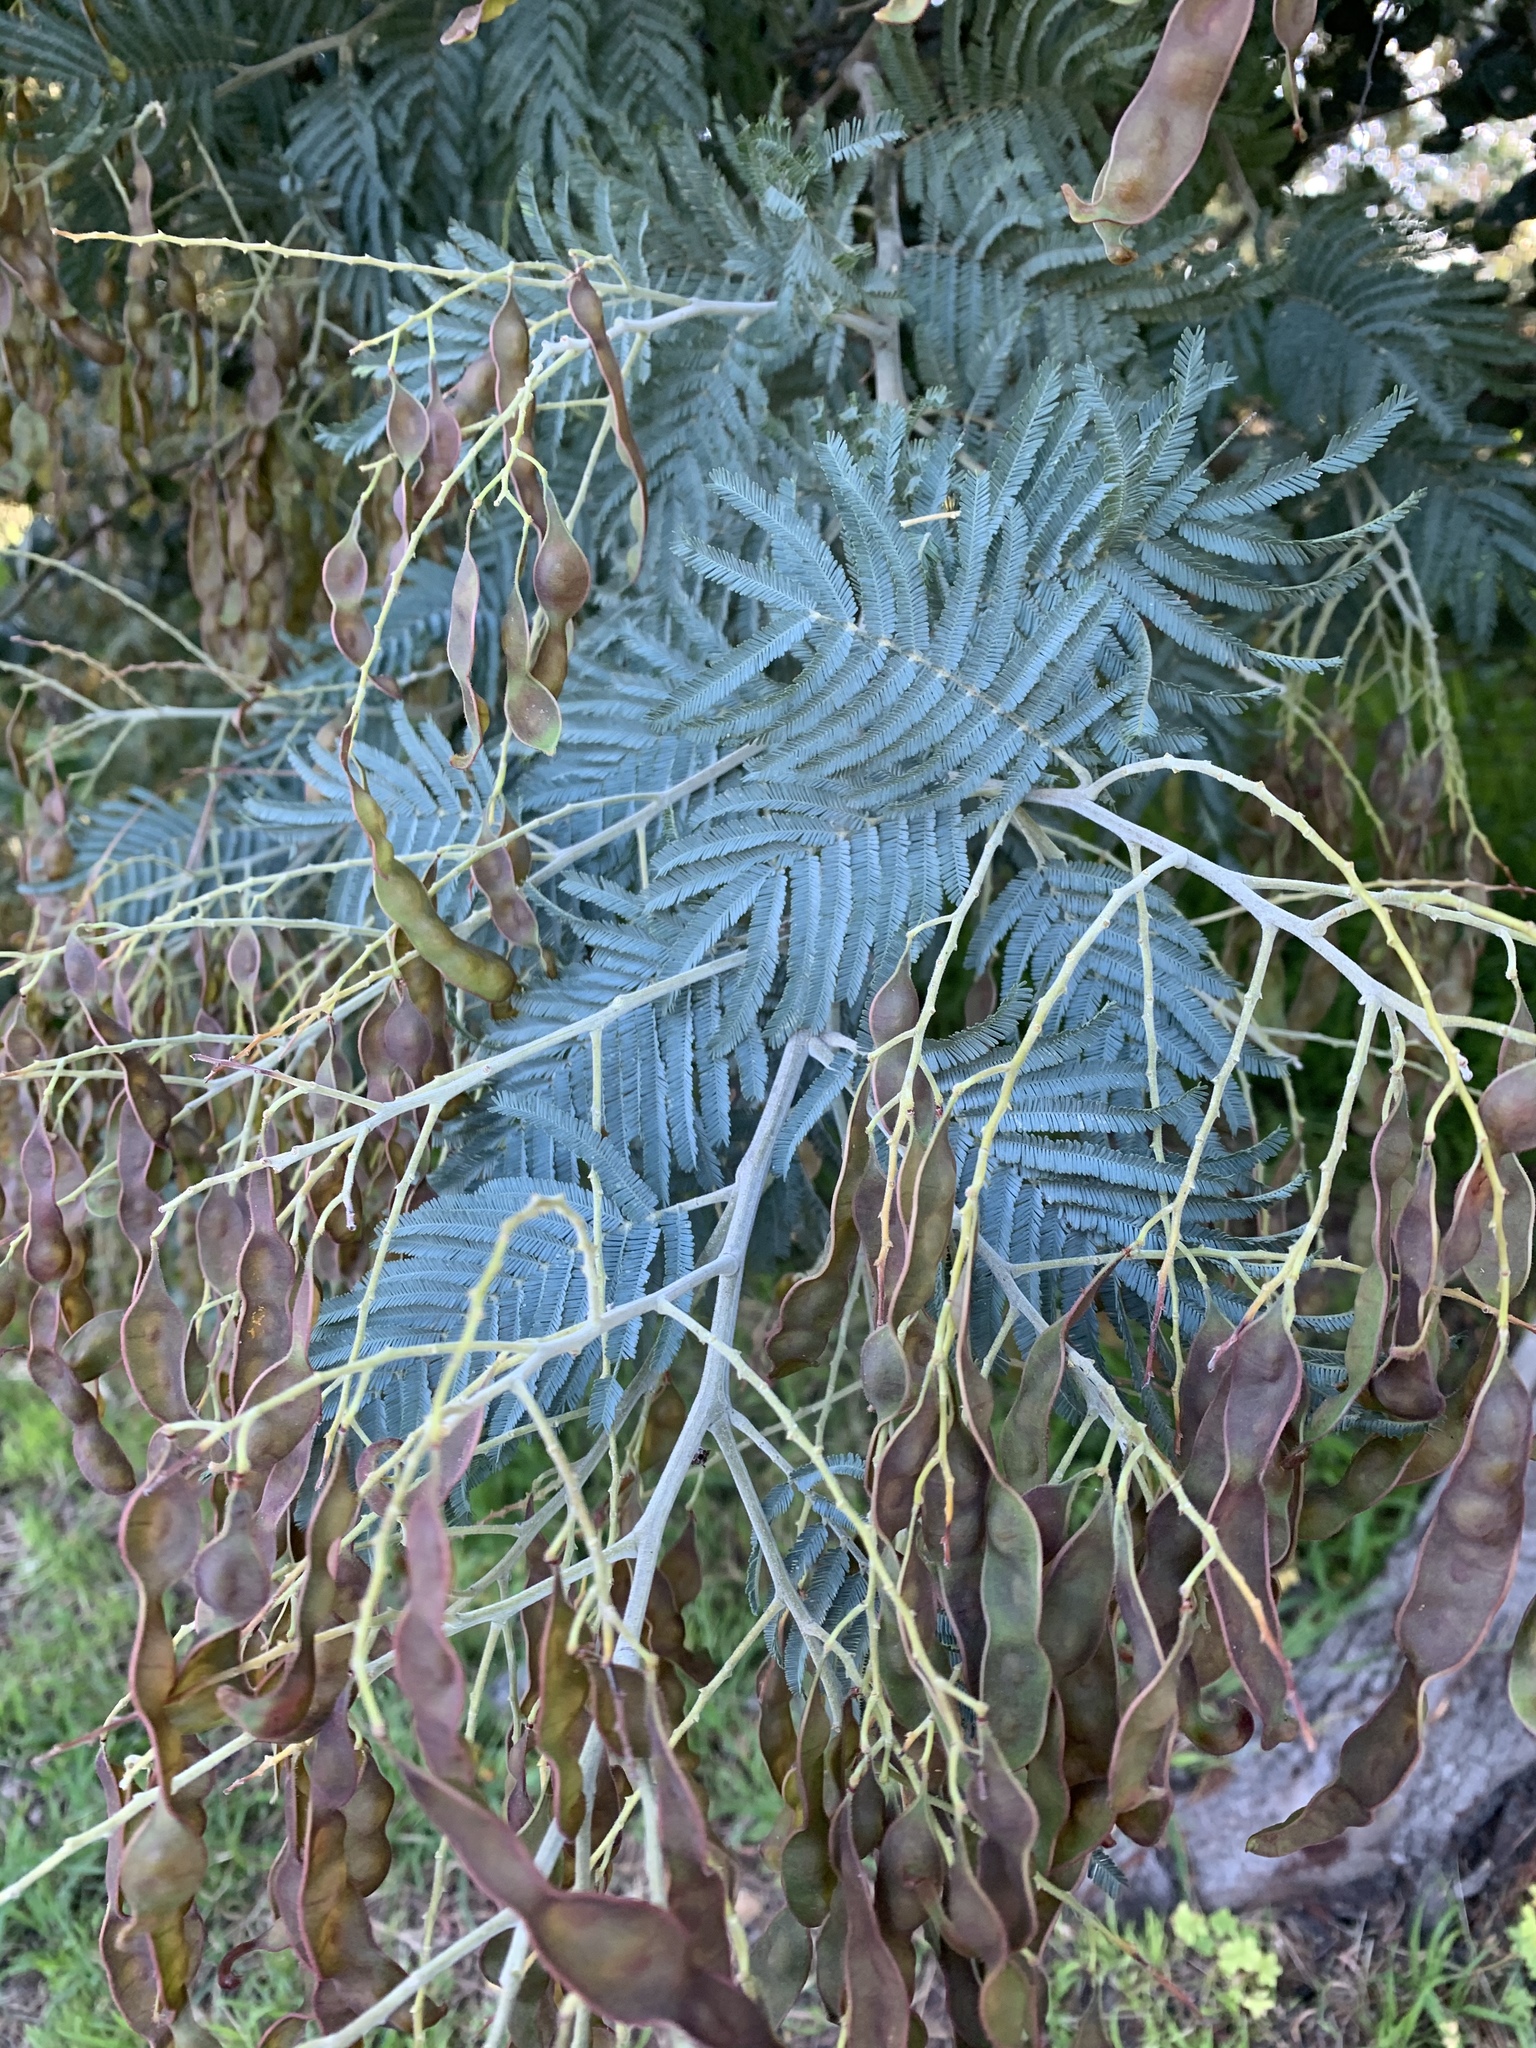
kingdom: Plantae
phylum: Tracheophyta
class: Magnoliopsida
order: Fabales
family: Fabaceae
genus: Acacia
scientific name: Acacia dealbata
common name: Silver wattle
